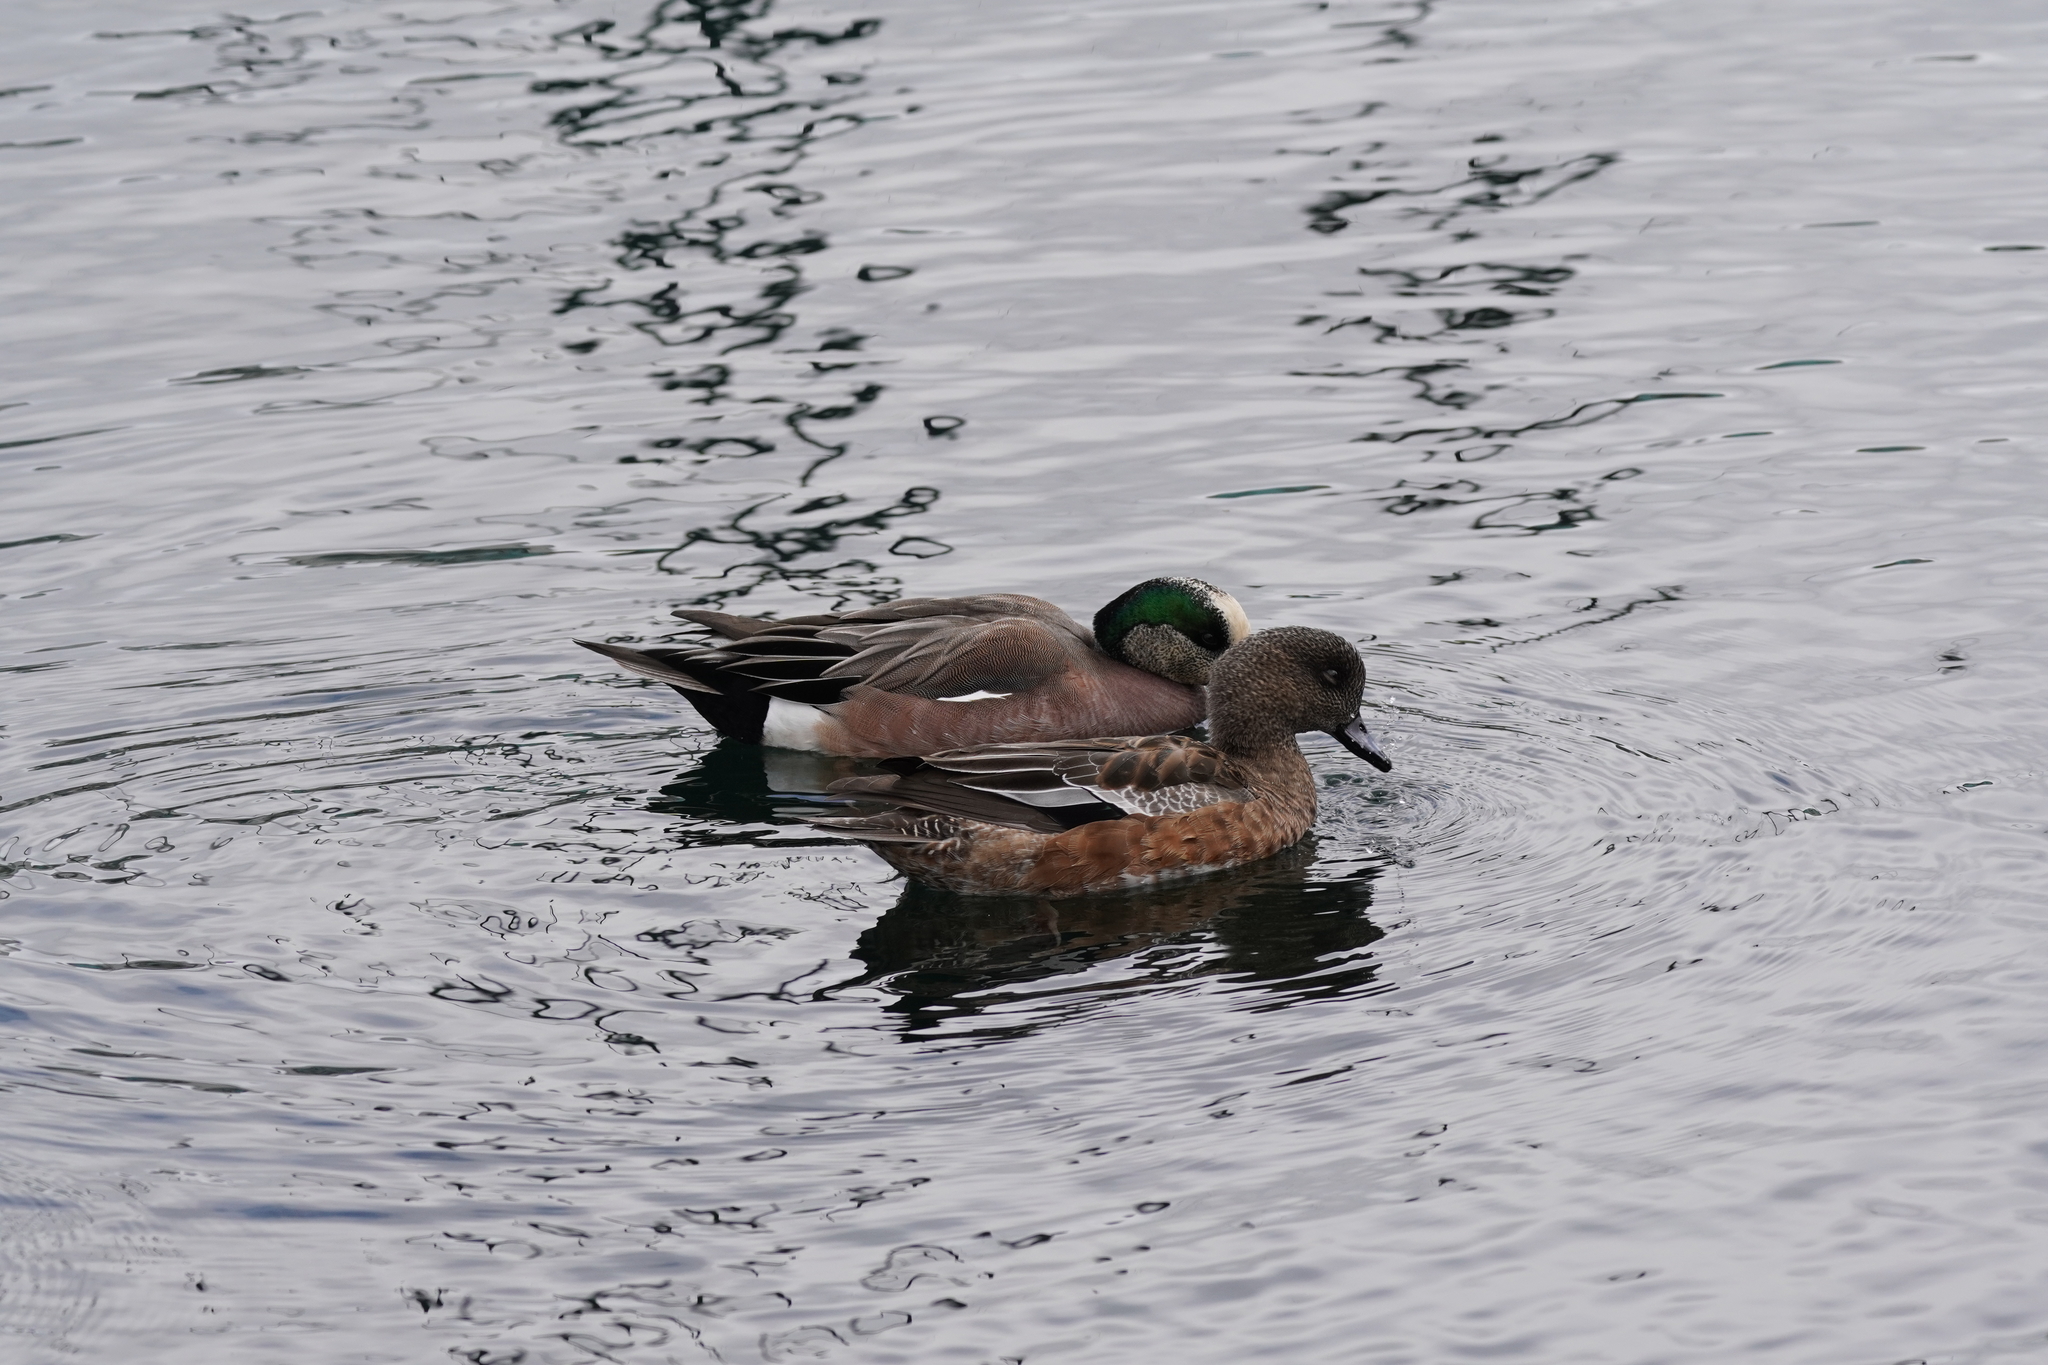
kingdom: Animalia
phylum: Chordata
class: Aves
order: Anseriformes
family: Anatidae
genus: Mareca
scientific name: Mareca americana
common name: American wigeon
